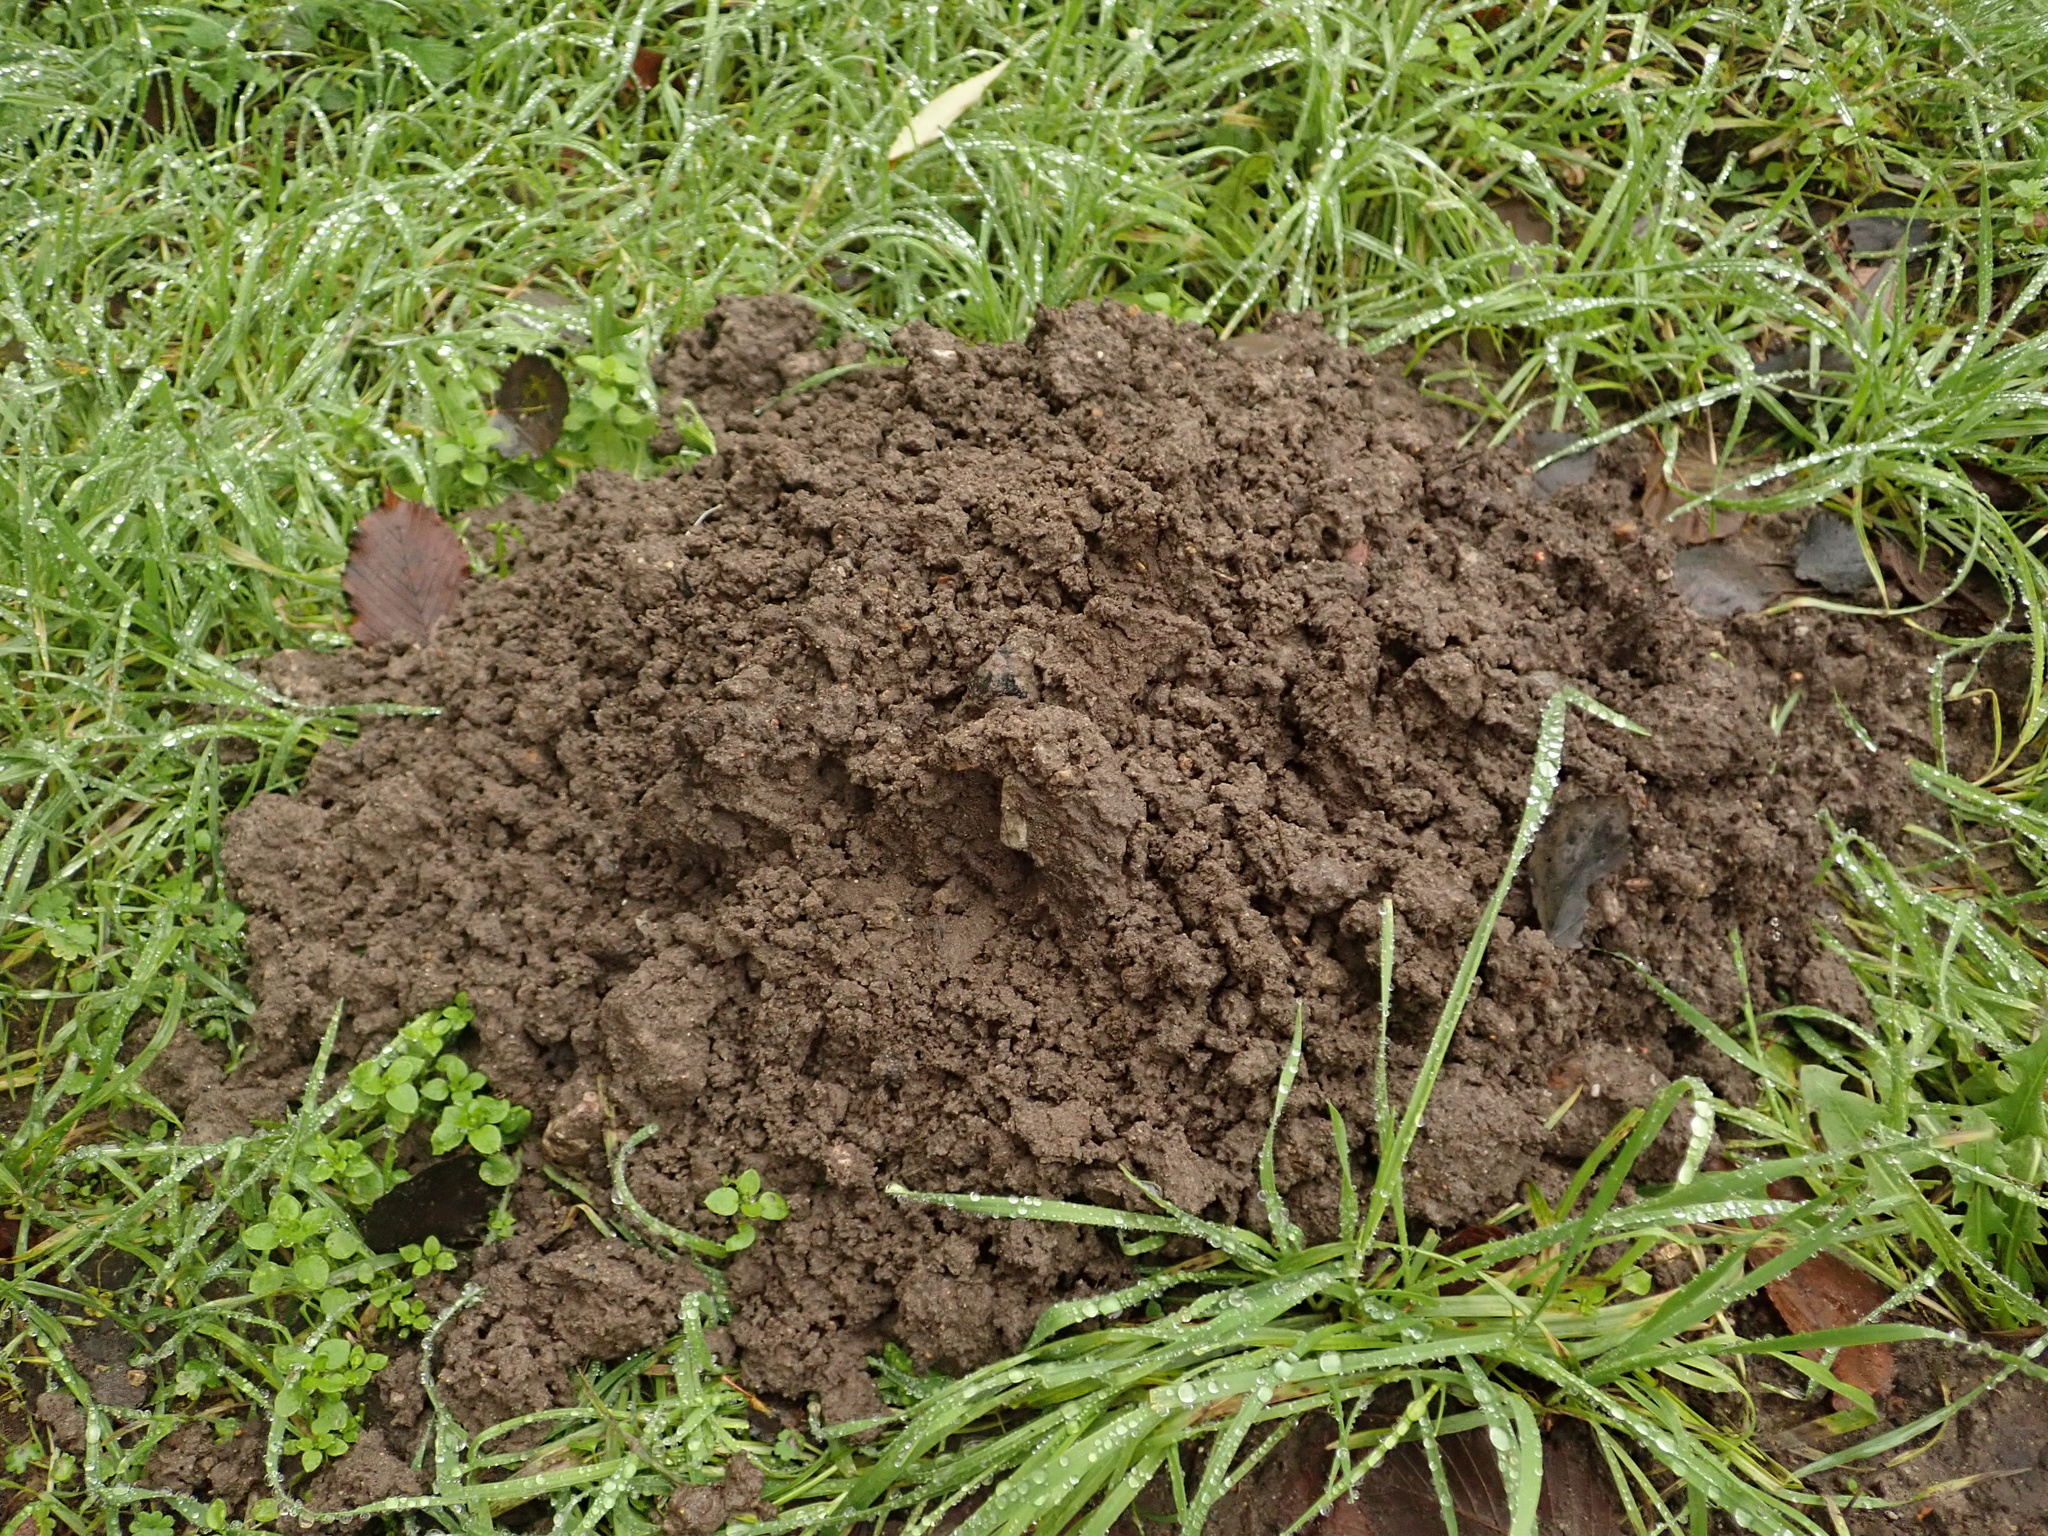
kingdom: Animalia
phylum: Chordata
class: Mammalia
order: Soricomorpha
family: Talpidae
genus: Talpa
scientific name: Talpa europaea
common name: European mole
